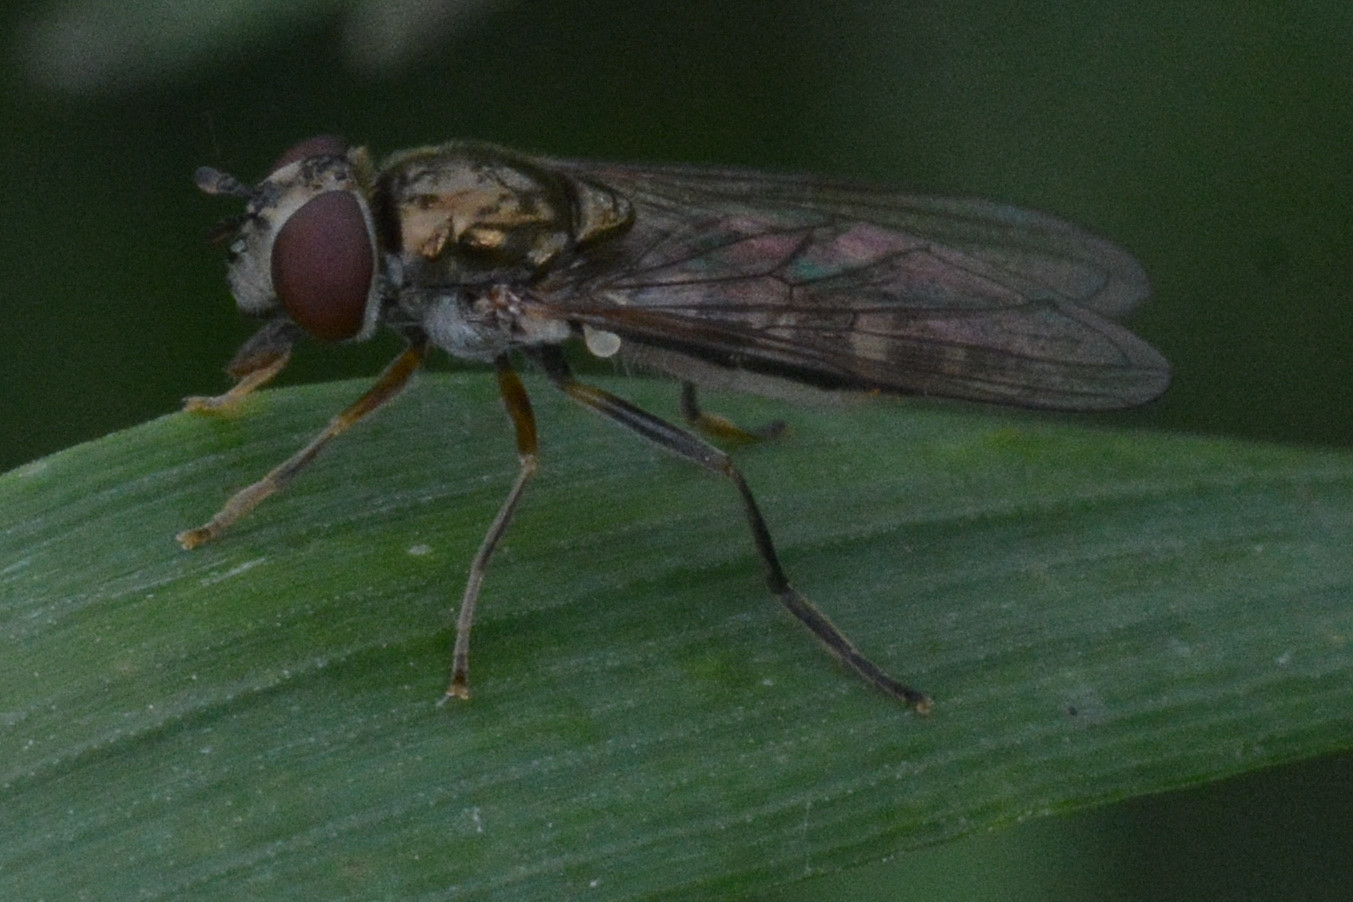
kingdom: Animalia
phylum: Arthropoda
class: Insecta
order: Diptera
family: Syrphidae
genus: Platycheirus
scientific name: Platycheirus albimanus
